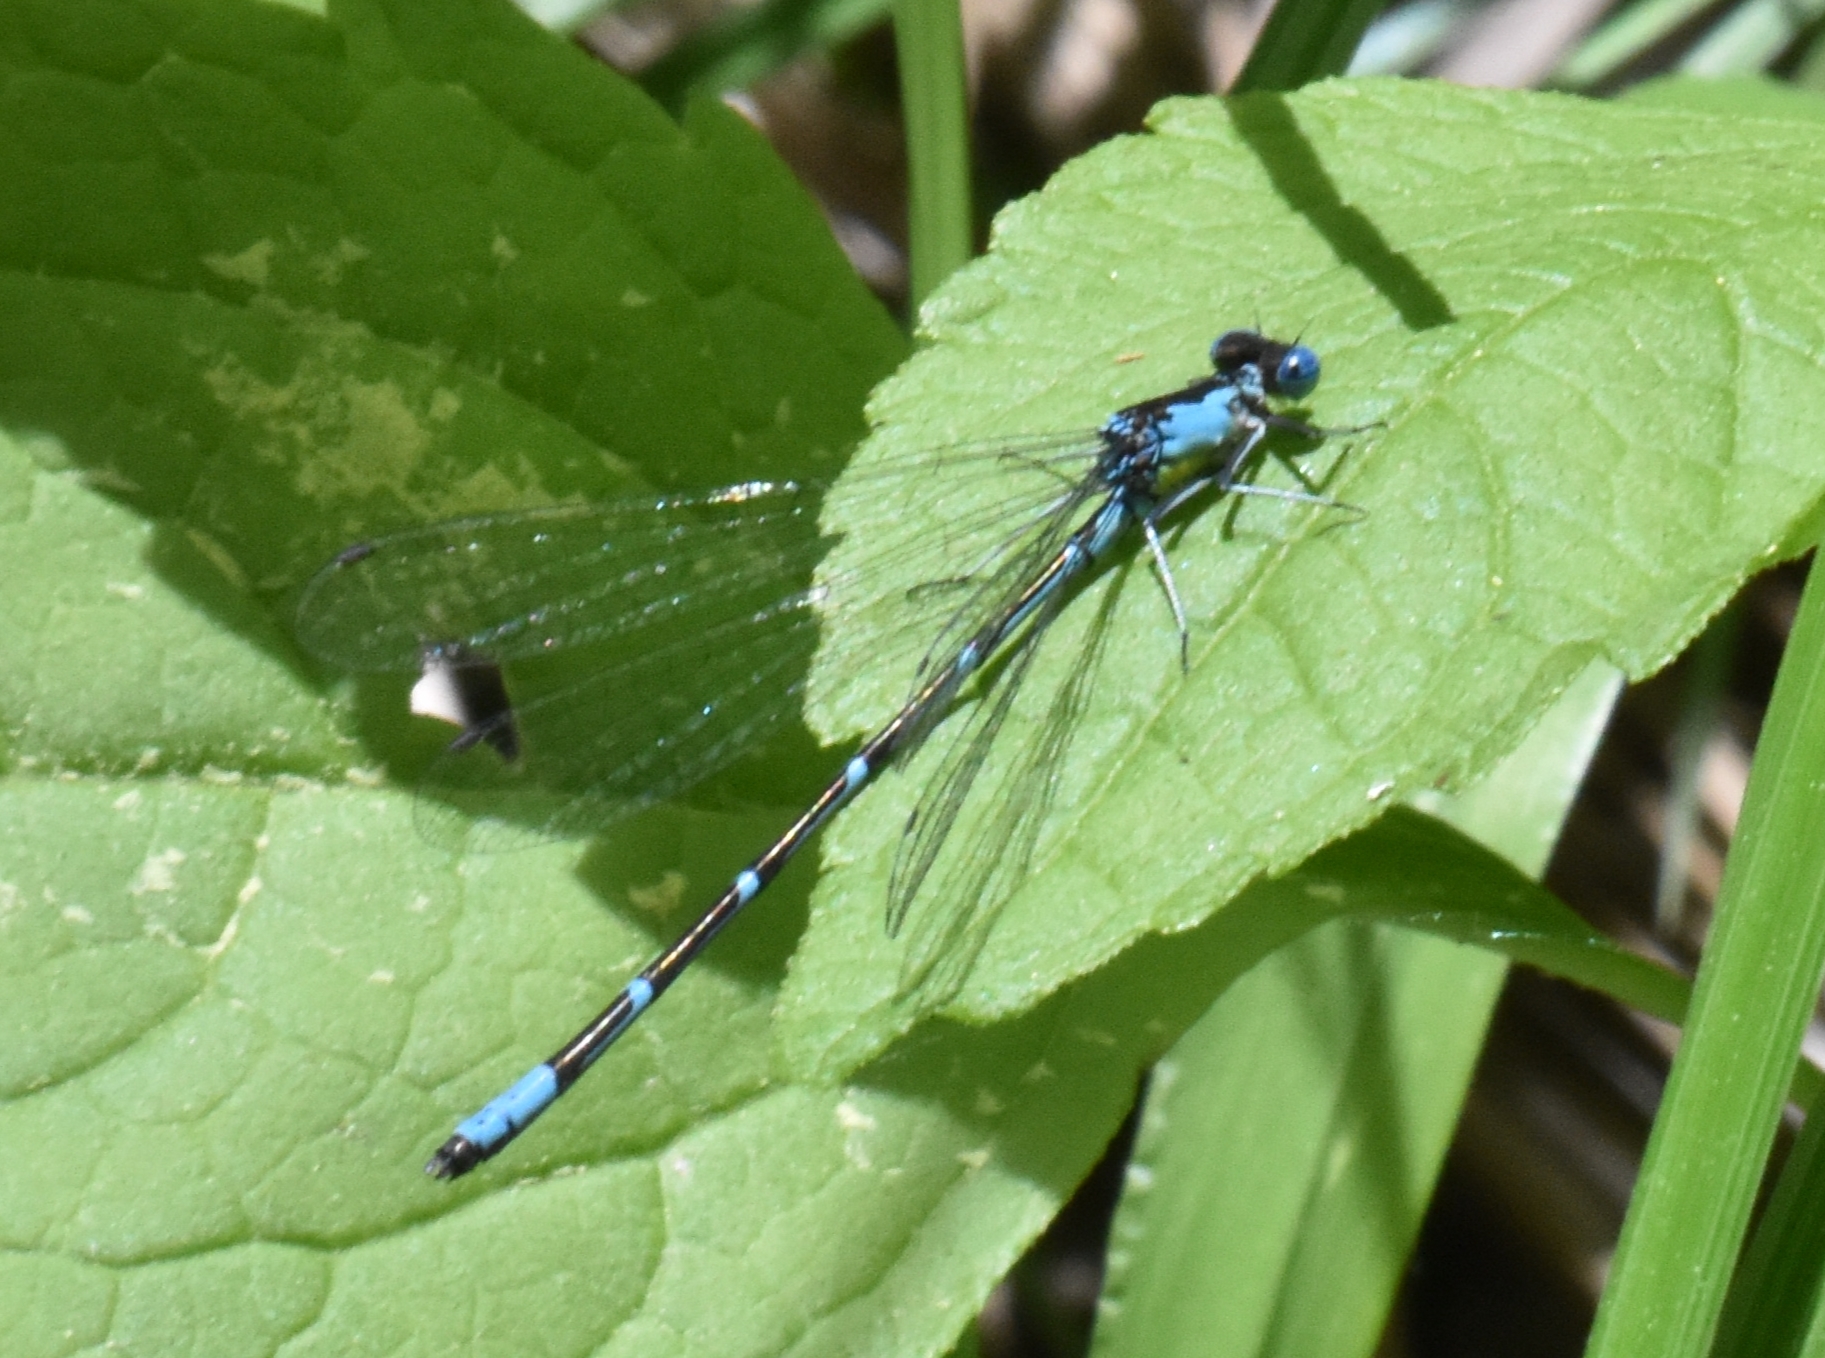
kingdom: Animalia
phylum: Arthropoda
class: Insecta
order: Odonata
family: Coenagrionidae
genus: Chromagrion
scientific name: Chromagrion conditum
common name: Aurora damsel
